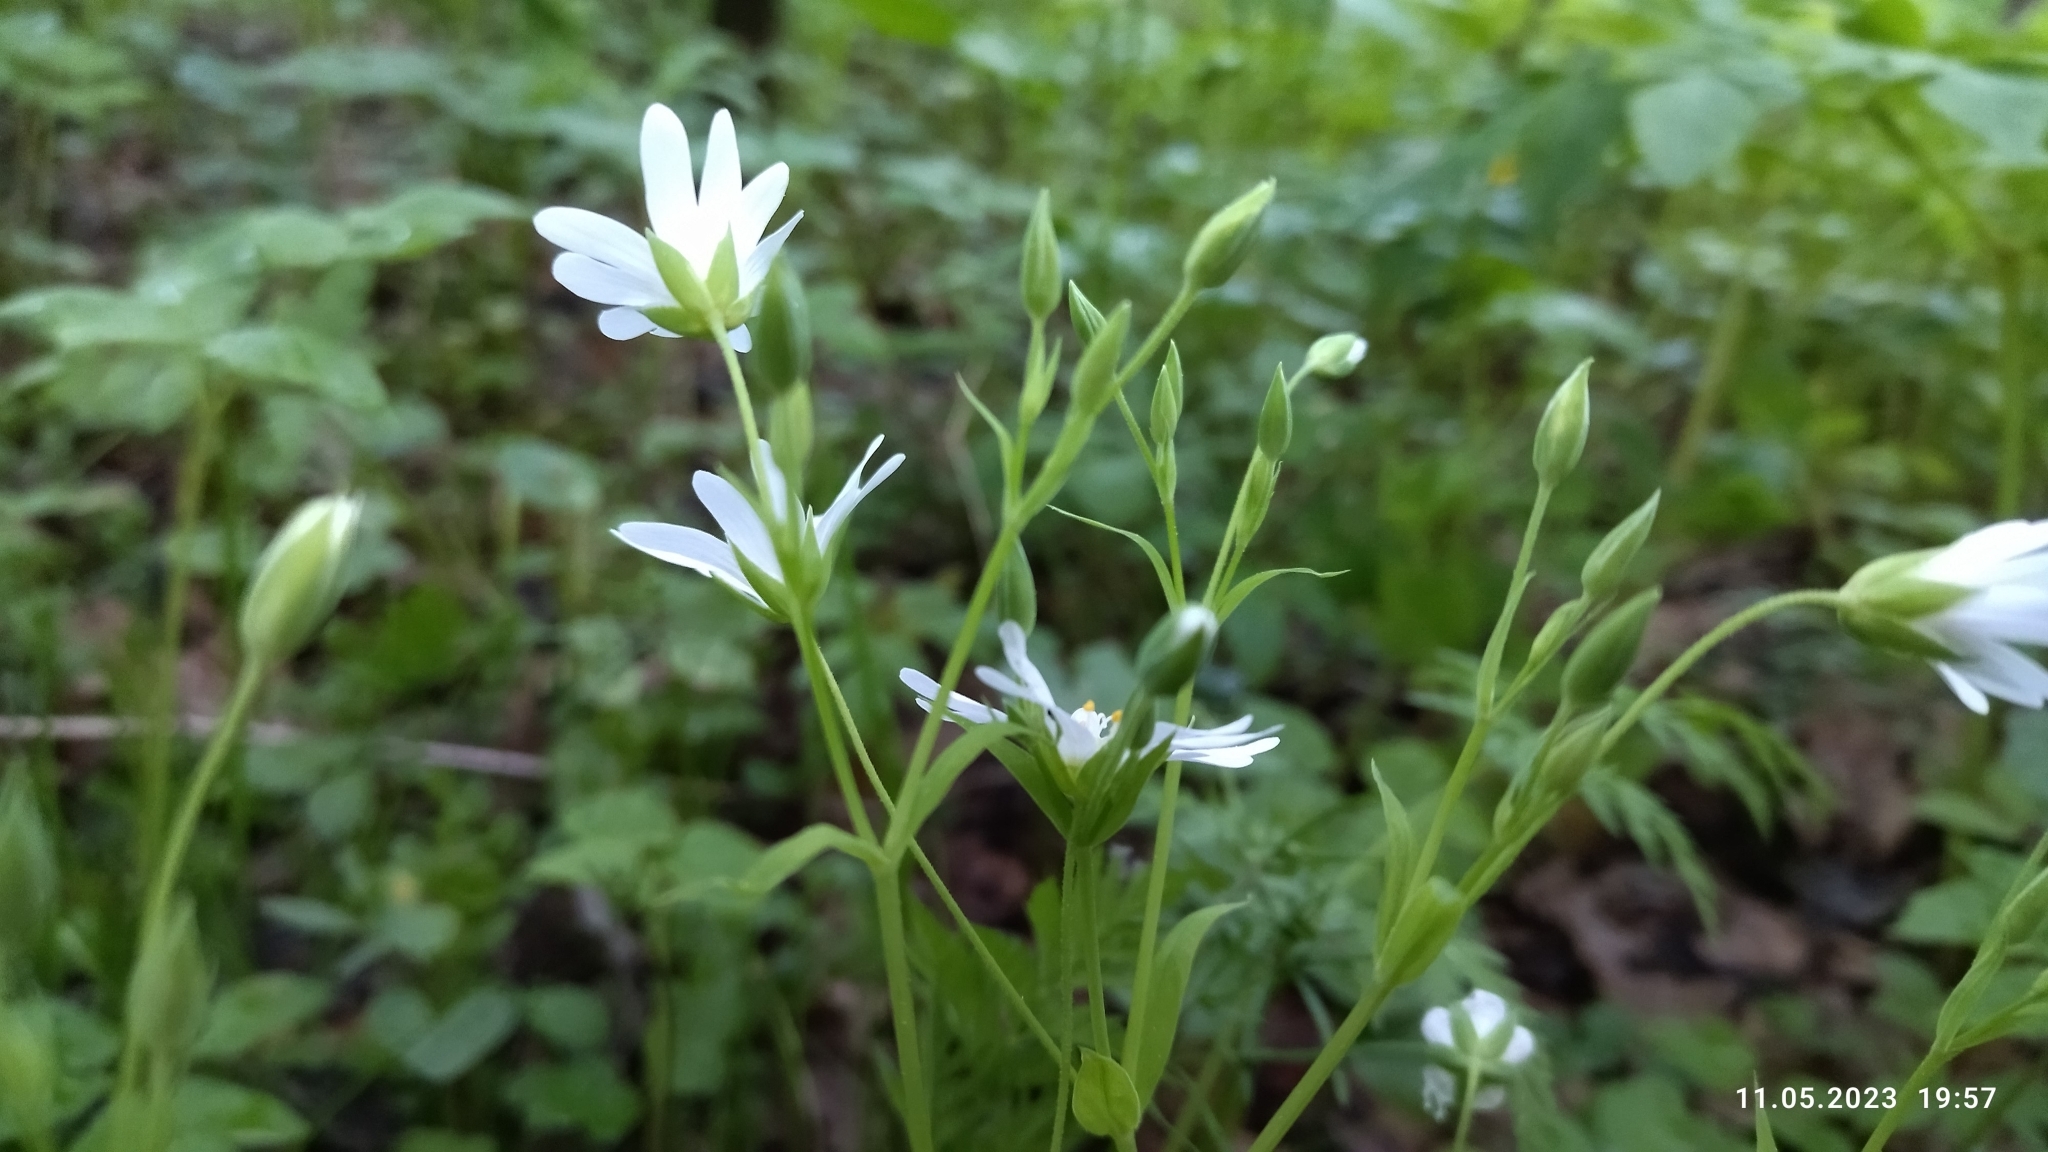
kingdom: Plantae
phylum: Tracheophyta
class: Magnoliopsida
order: Caryophyllales
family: Caryophyllaceae
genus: Rabelera
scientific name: Rabelera holostea
